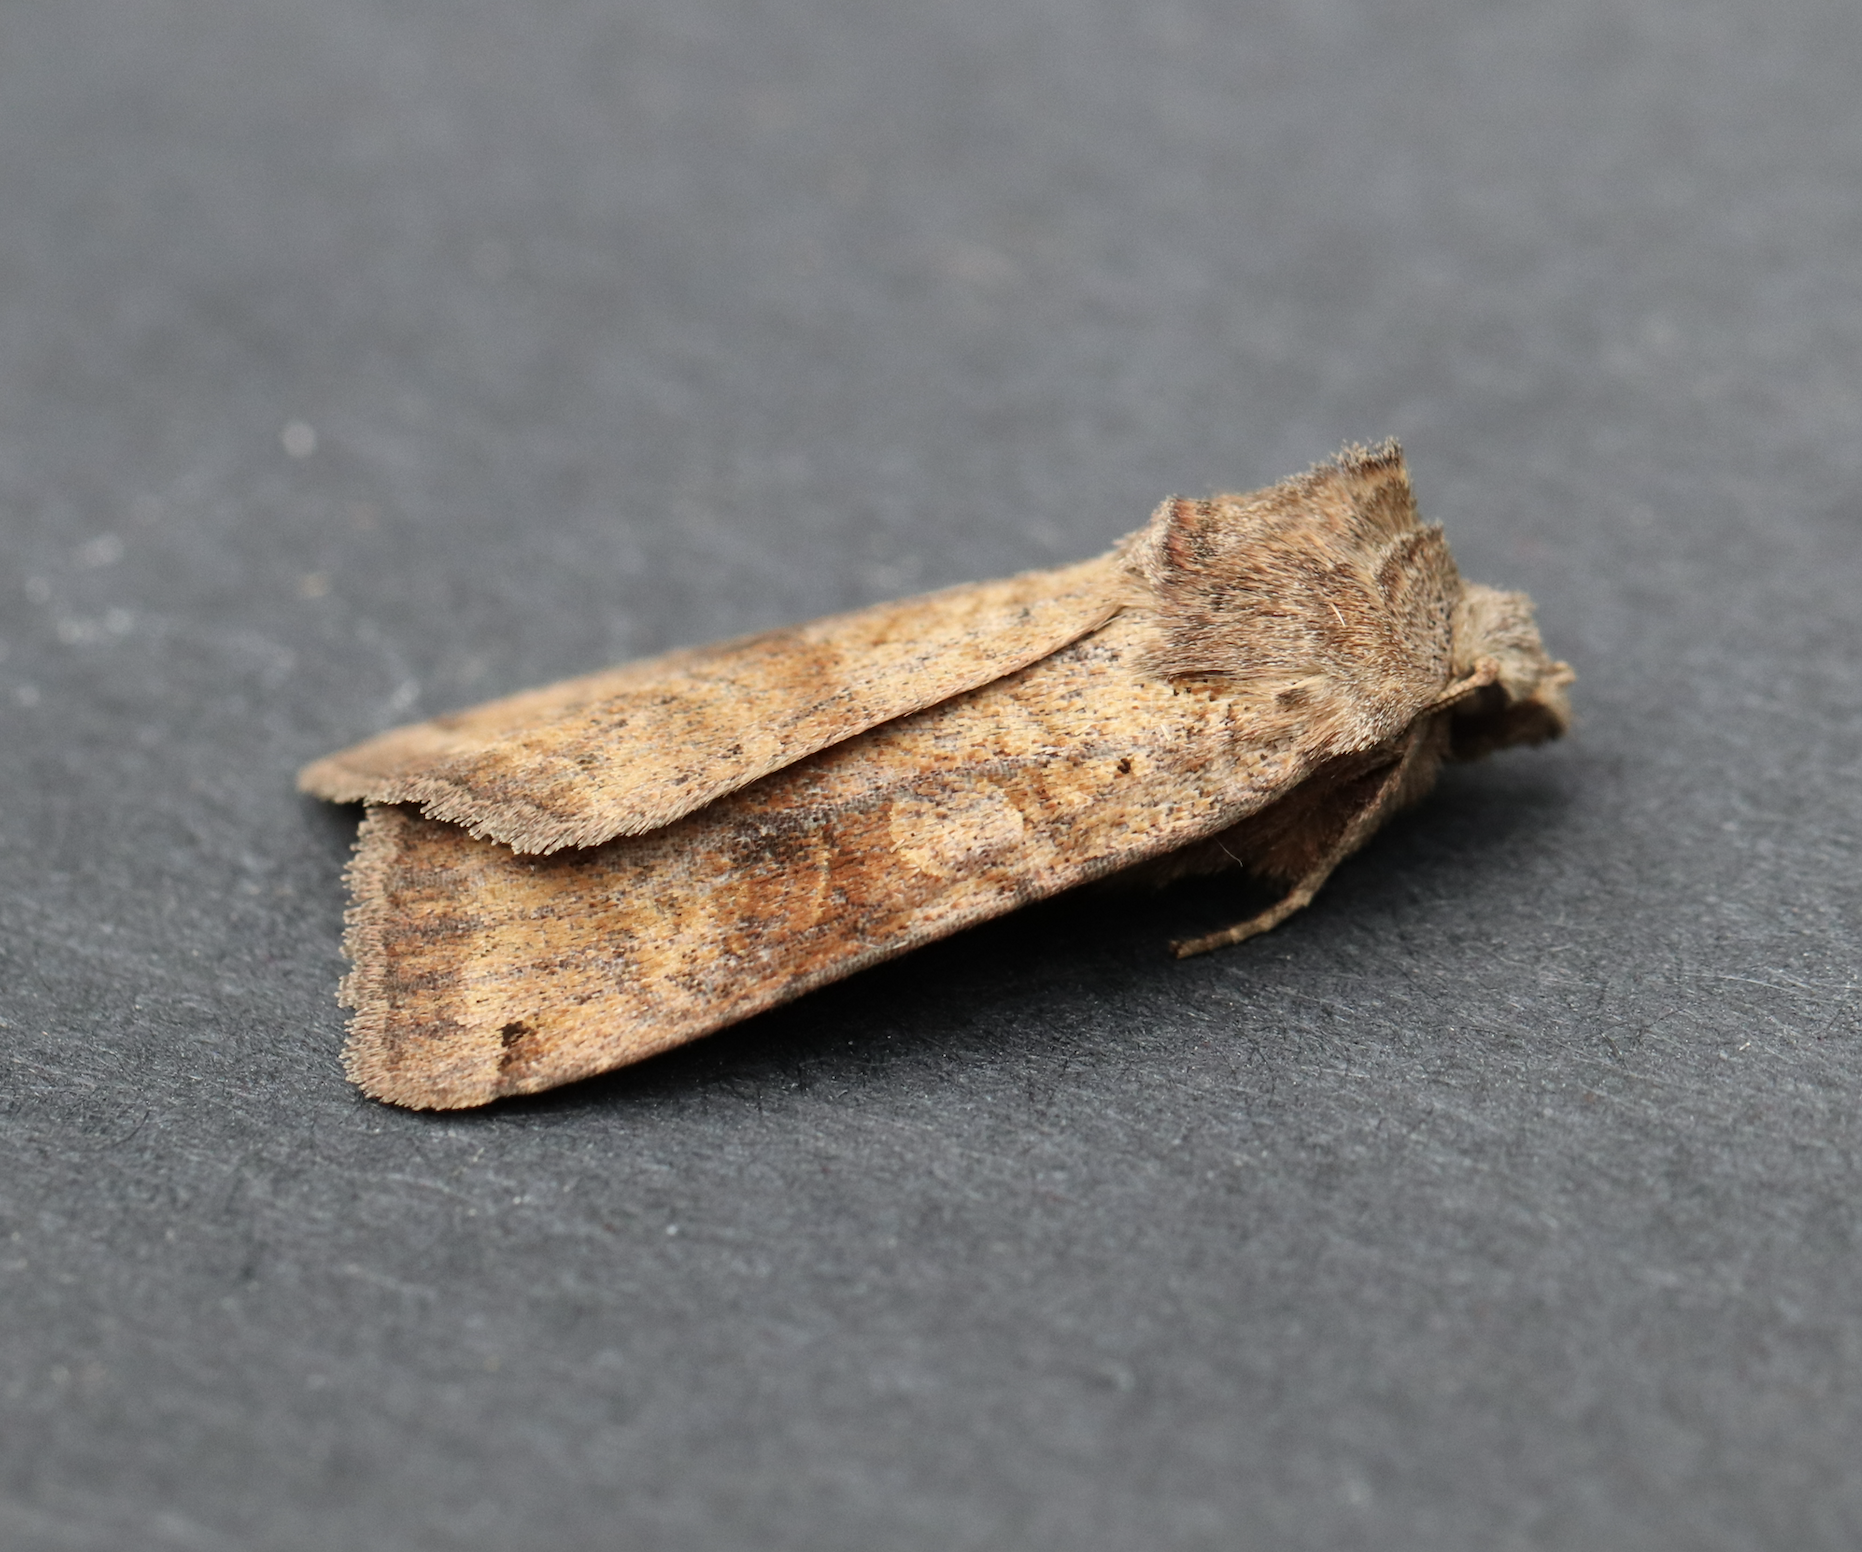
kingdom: Animalia
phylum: Arthropoda
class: Insecta
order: Lepidoptera
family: Noctuidae
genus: Xestia
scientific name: Xestia smithii
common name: Smith's dart
